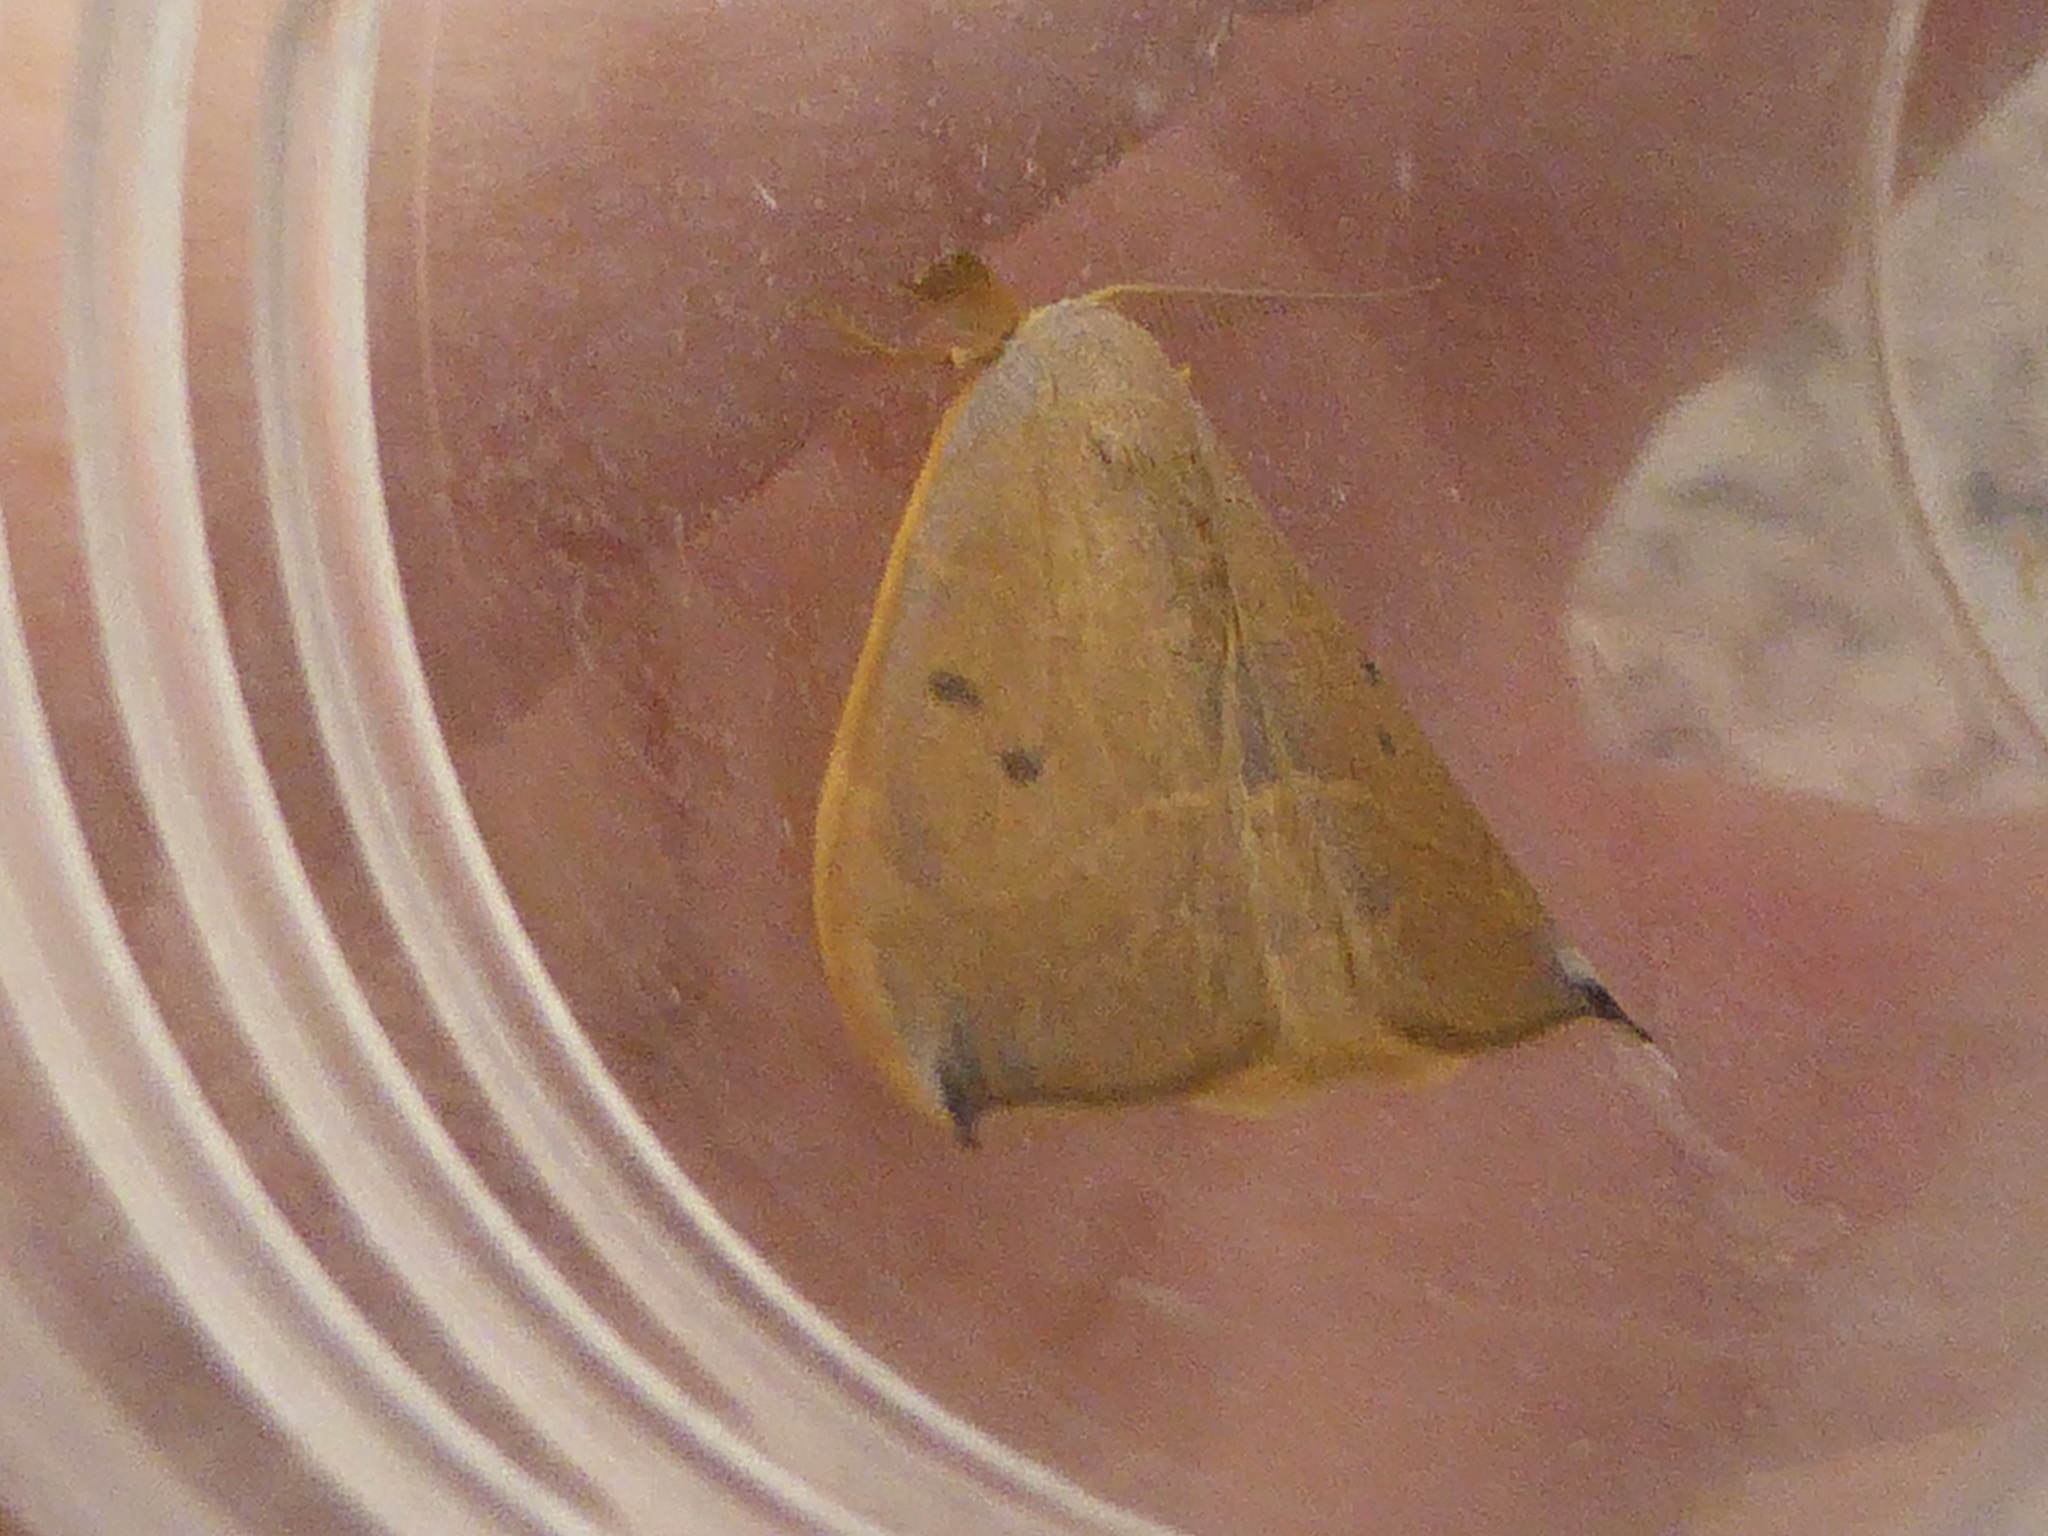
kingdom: Animalia
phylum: Arthropoda
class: Insecta
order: Lepidoptera
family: Drepanidae
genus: Watsonalla
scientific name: Watsonalla uncinula
